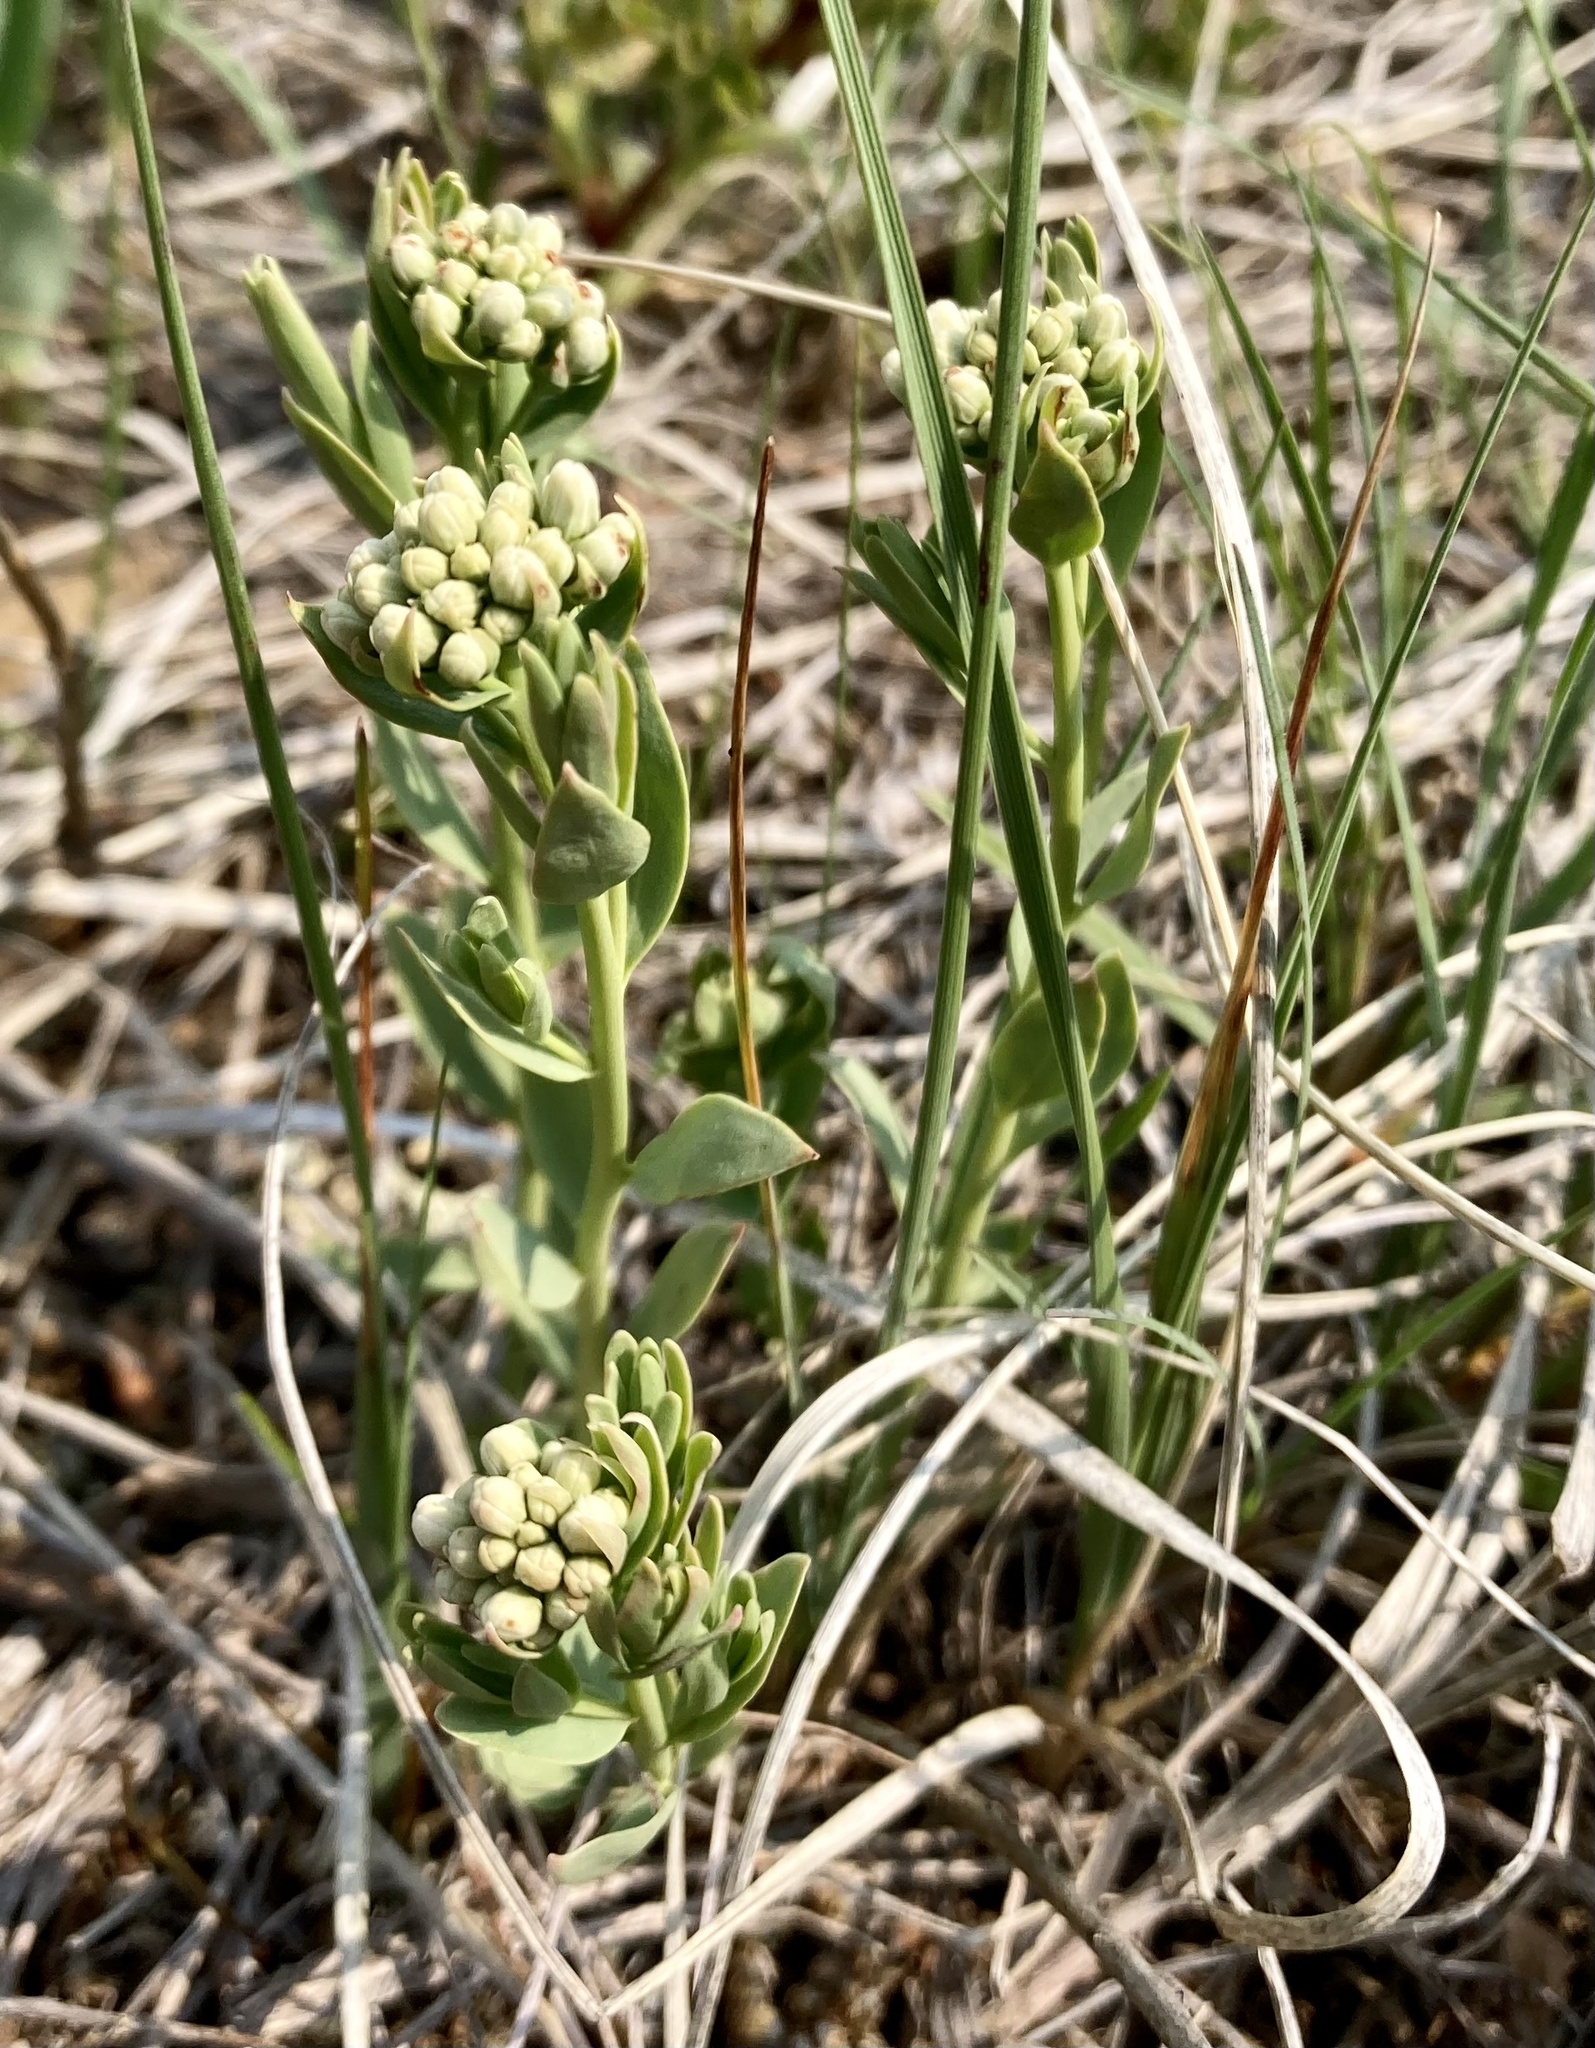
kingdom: Plantae
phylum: Tracheophyta
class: Magnoliopsida
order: Santalales
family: Comandraceae
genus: Comandra
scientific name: Comandra umbellata
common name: Bastard toadflax
